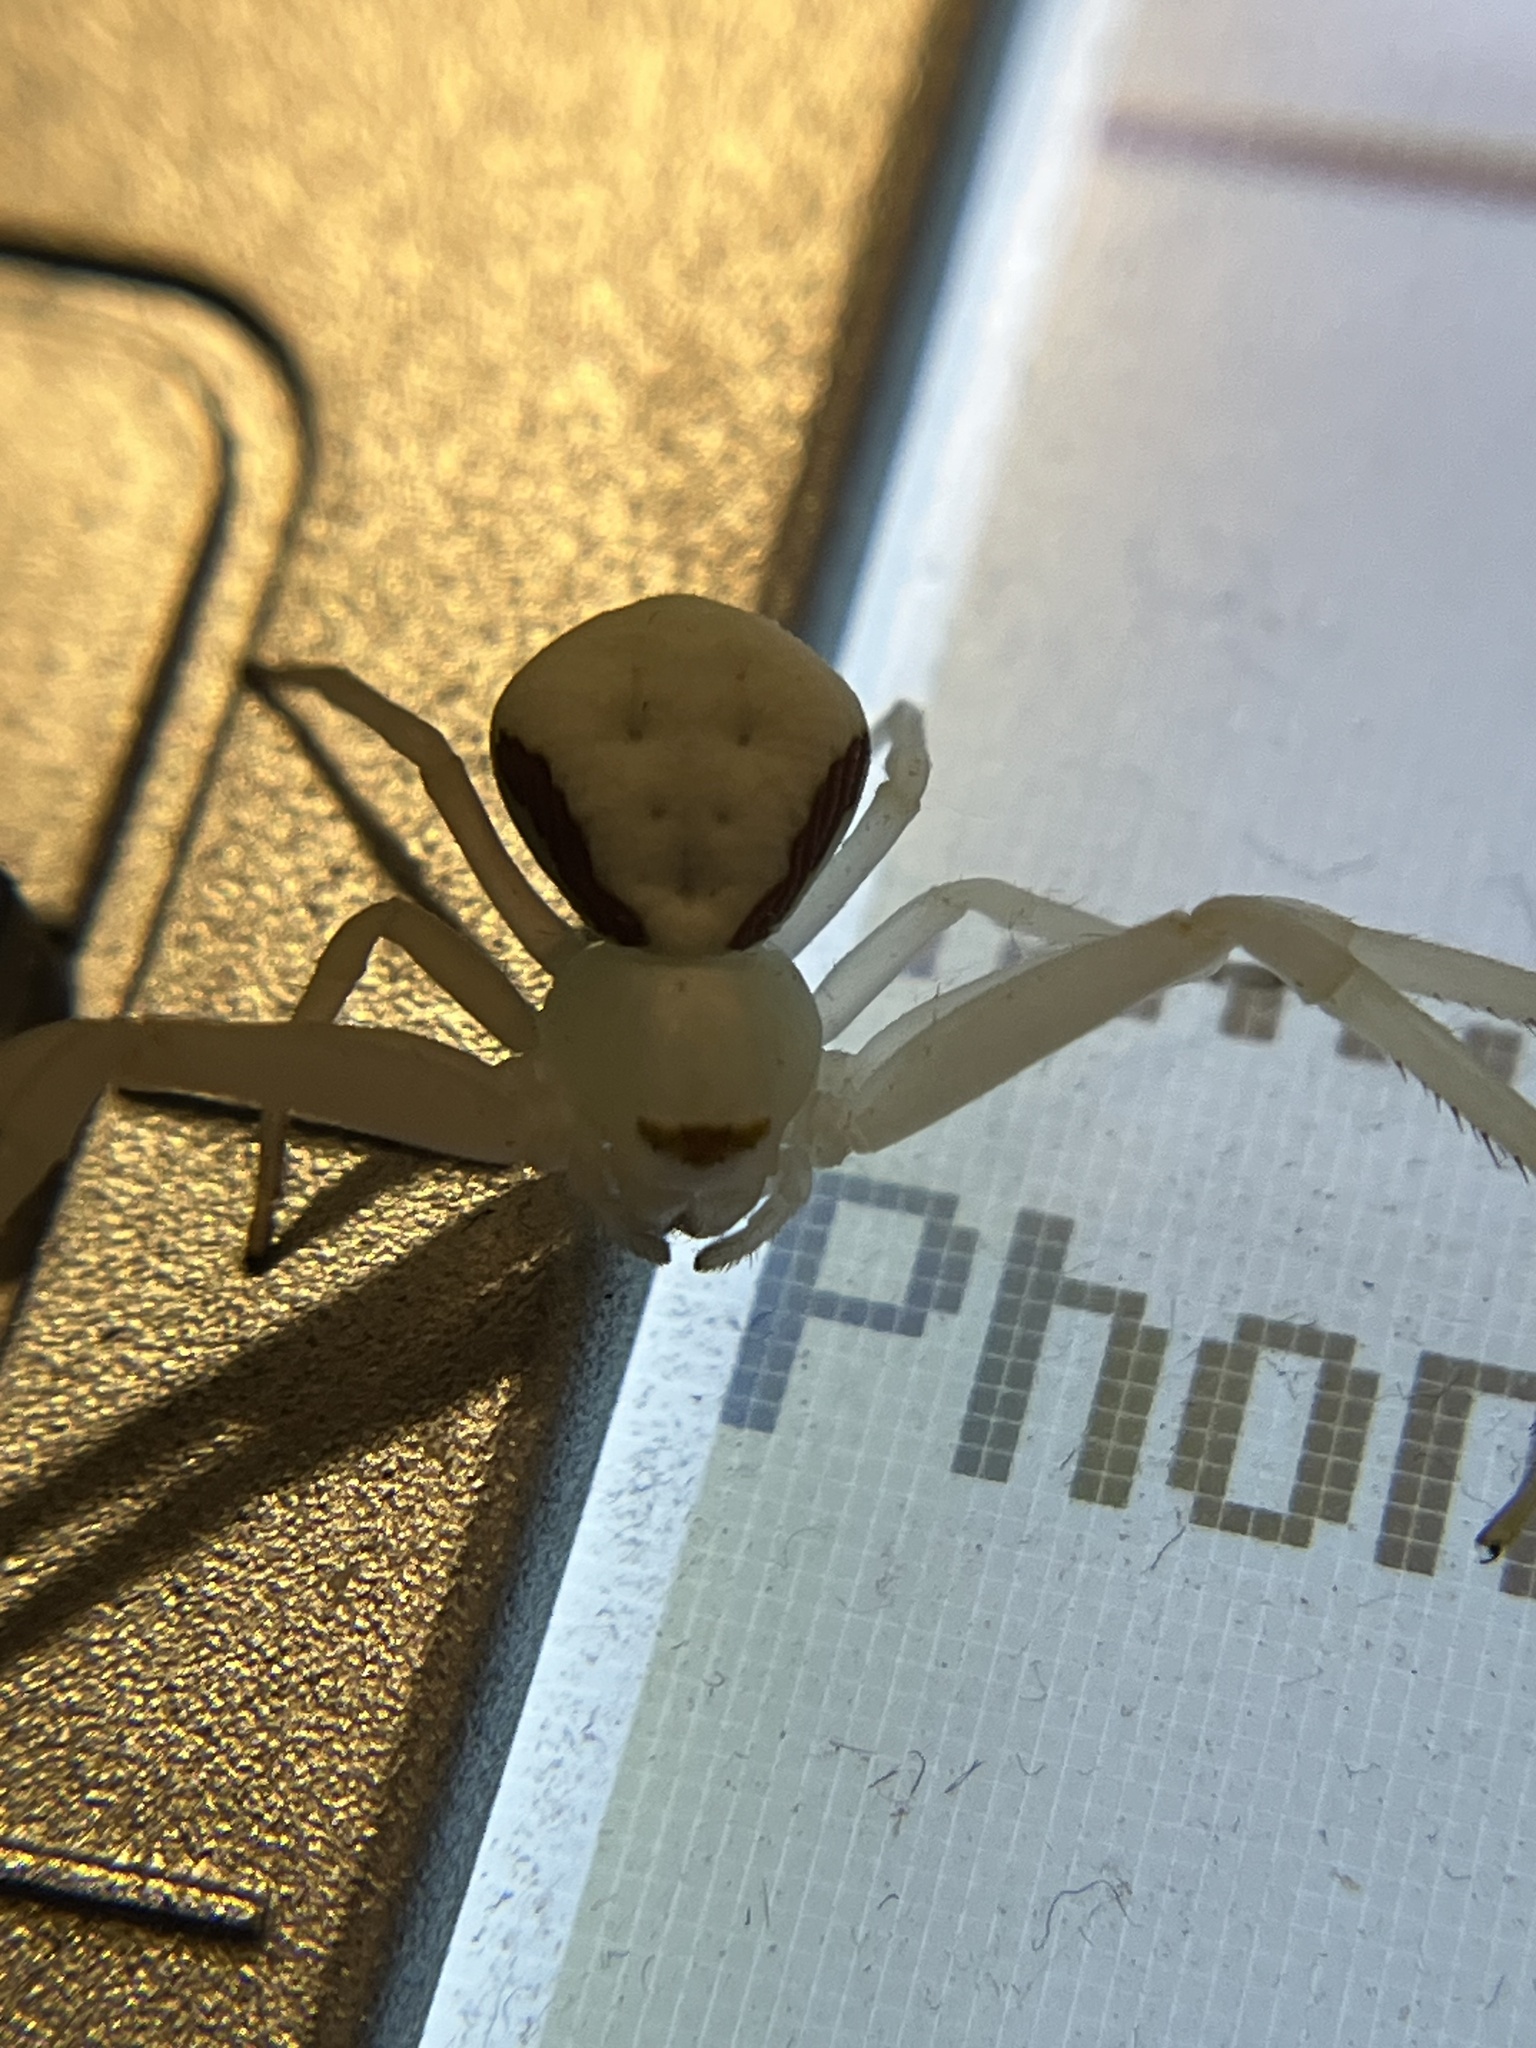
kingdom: Animalia
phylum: Arthropoda
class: Arachnida
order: Araneae
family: Thomisidae
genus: Misumena
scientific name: Misumena vatia
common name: Goldenrod crab spider
